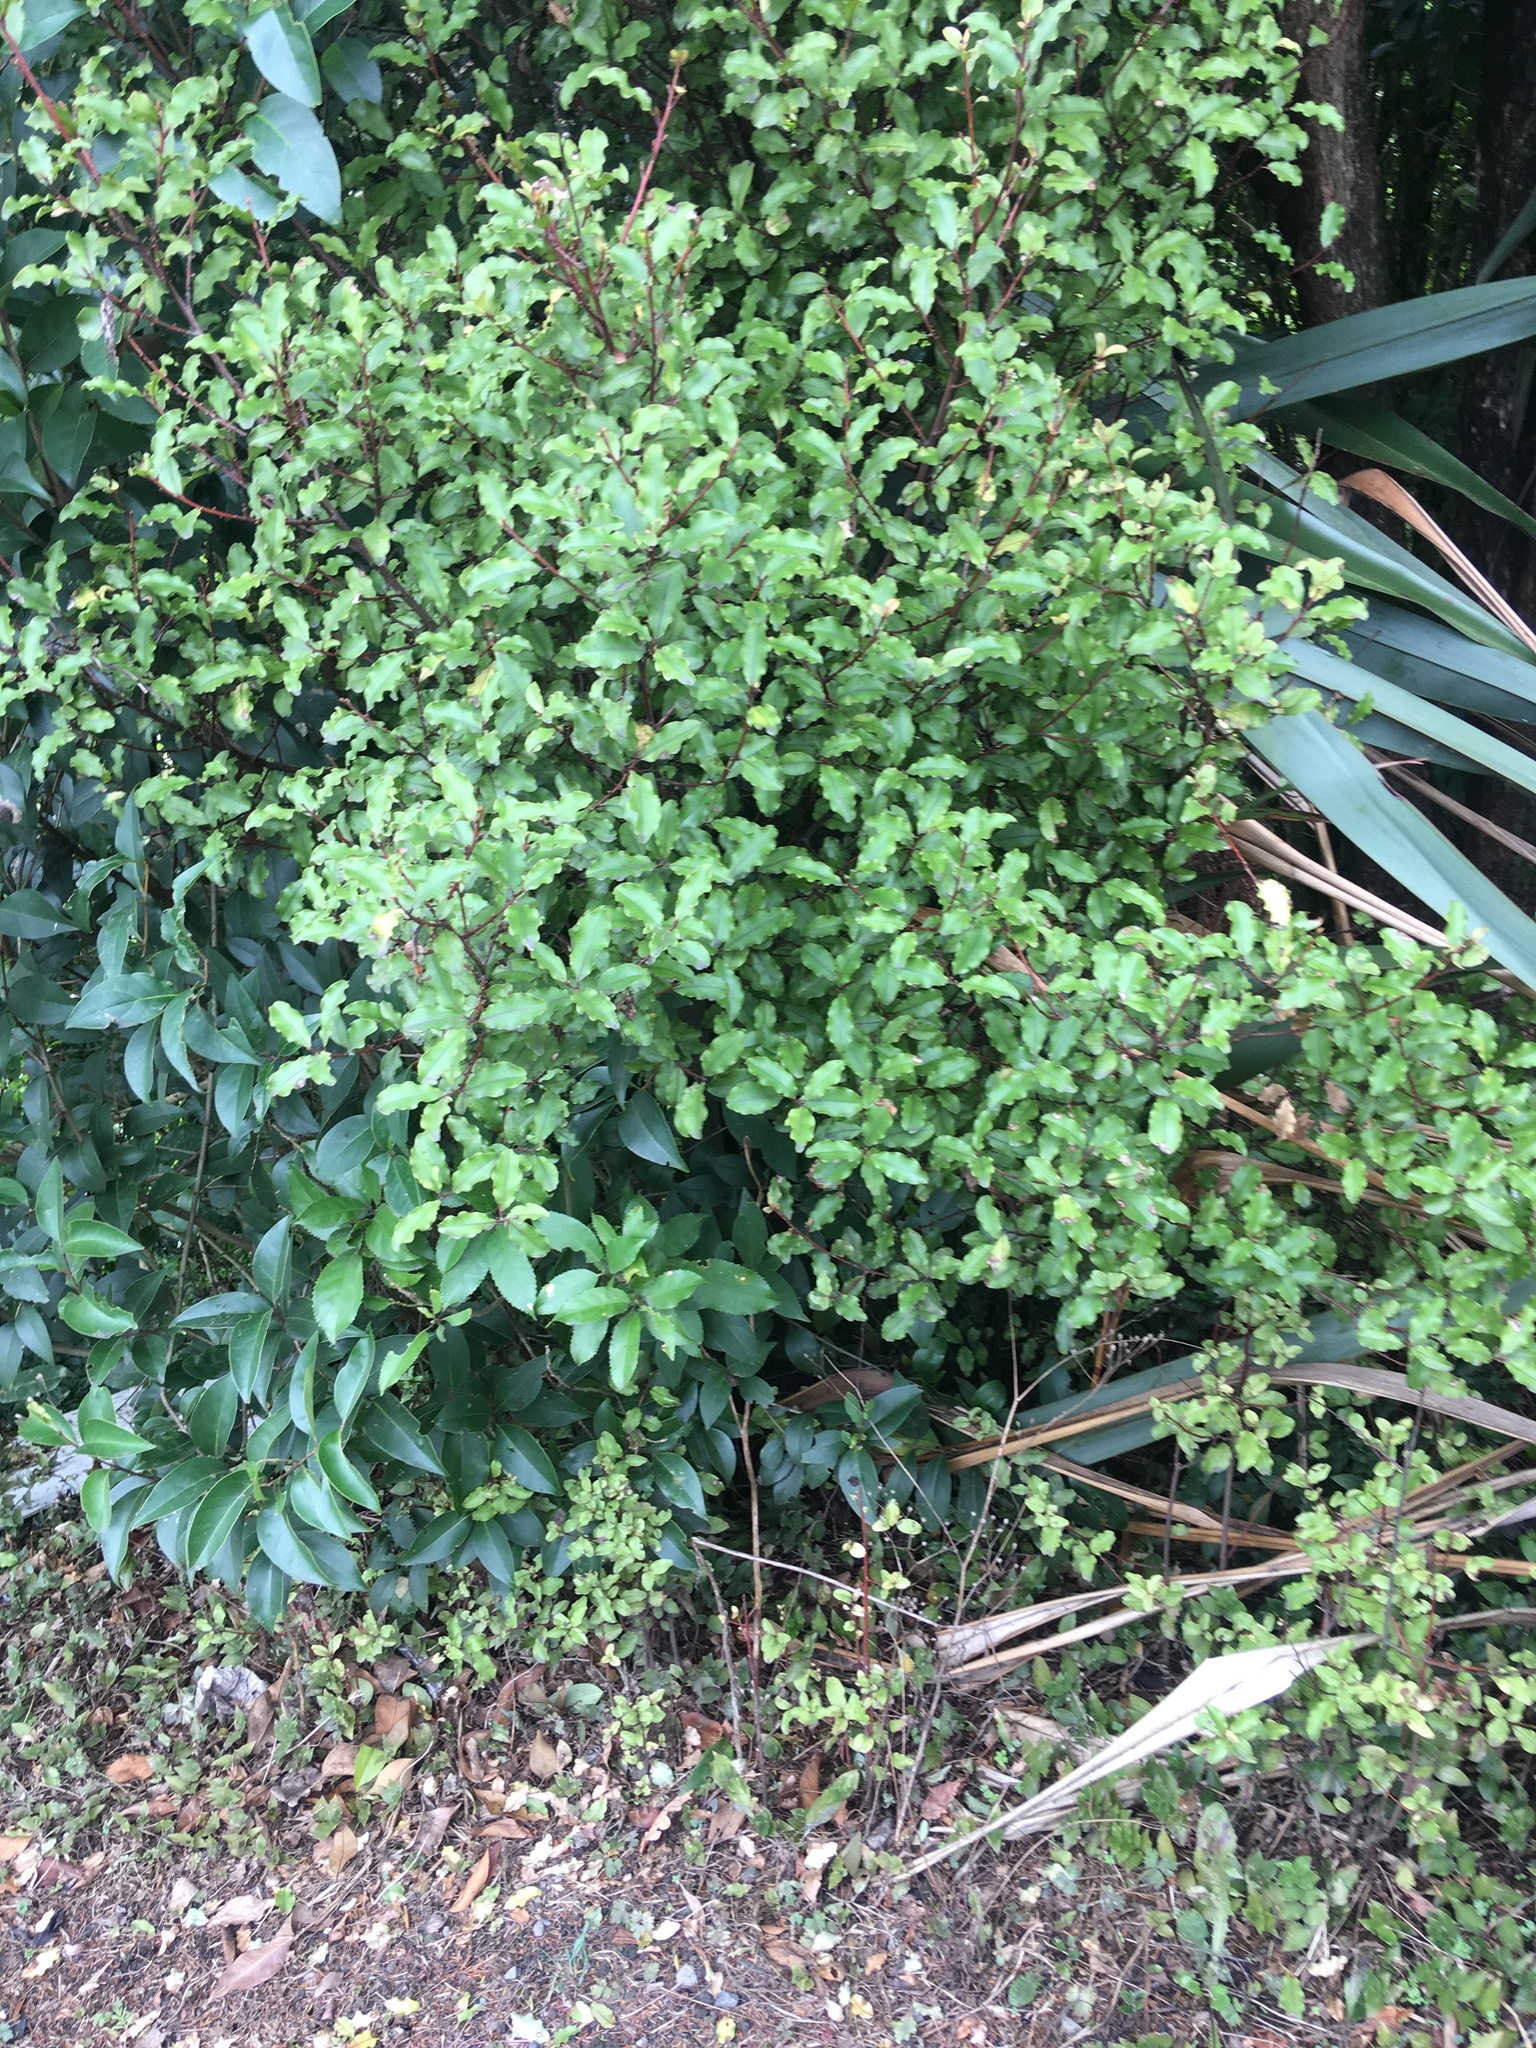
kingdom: Plantae
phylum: Tracheophyta
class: Magnoliopsida
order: Ericales
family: Primulaceae
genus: Myrsine
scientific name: Myrsine australis
